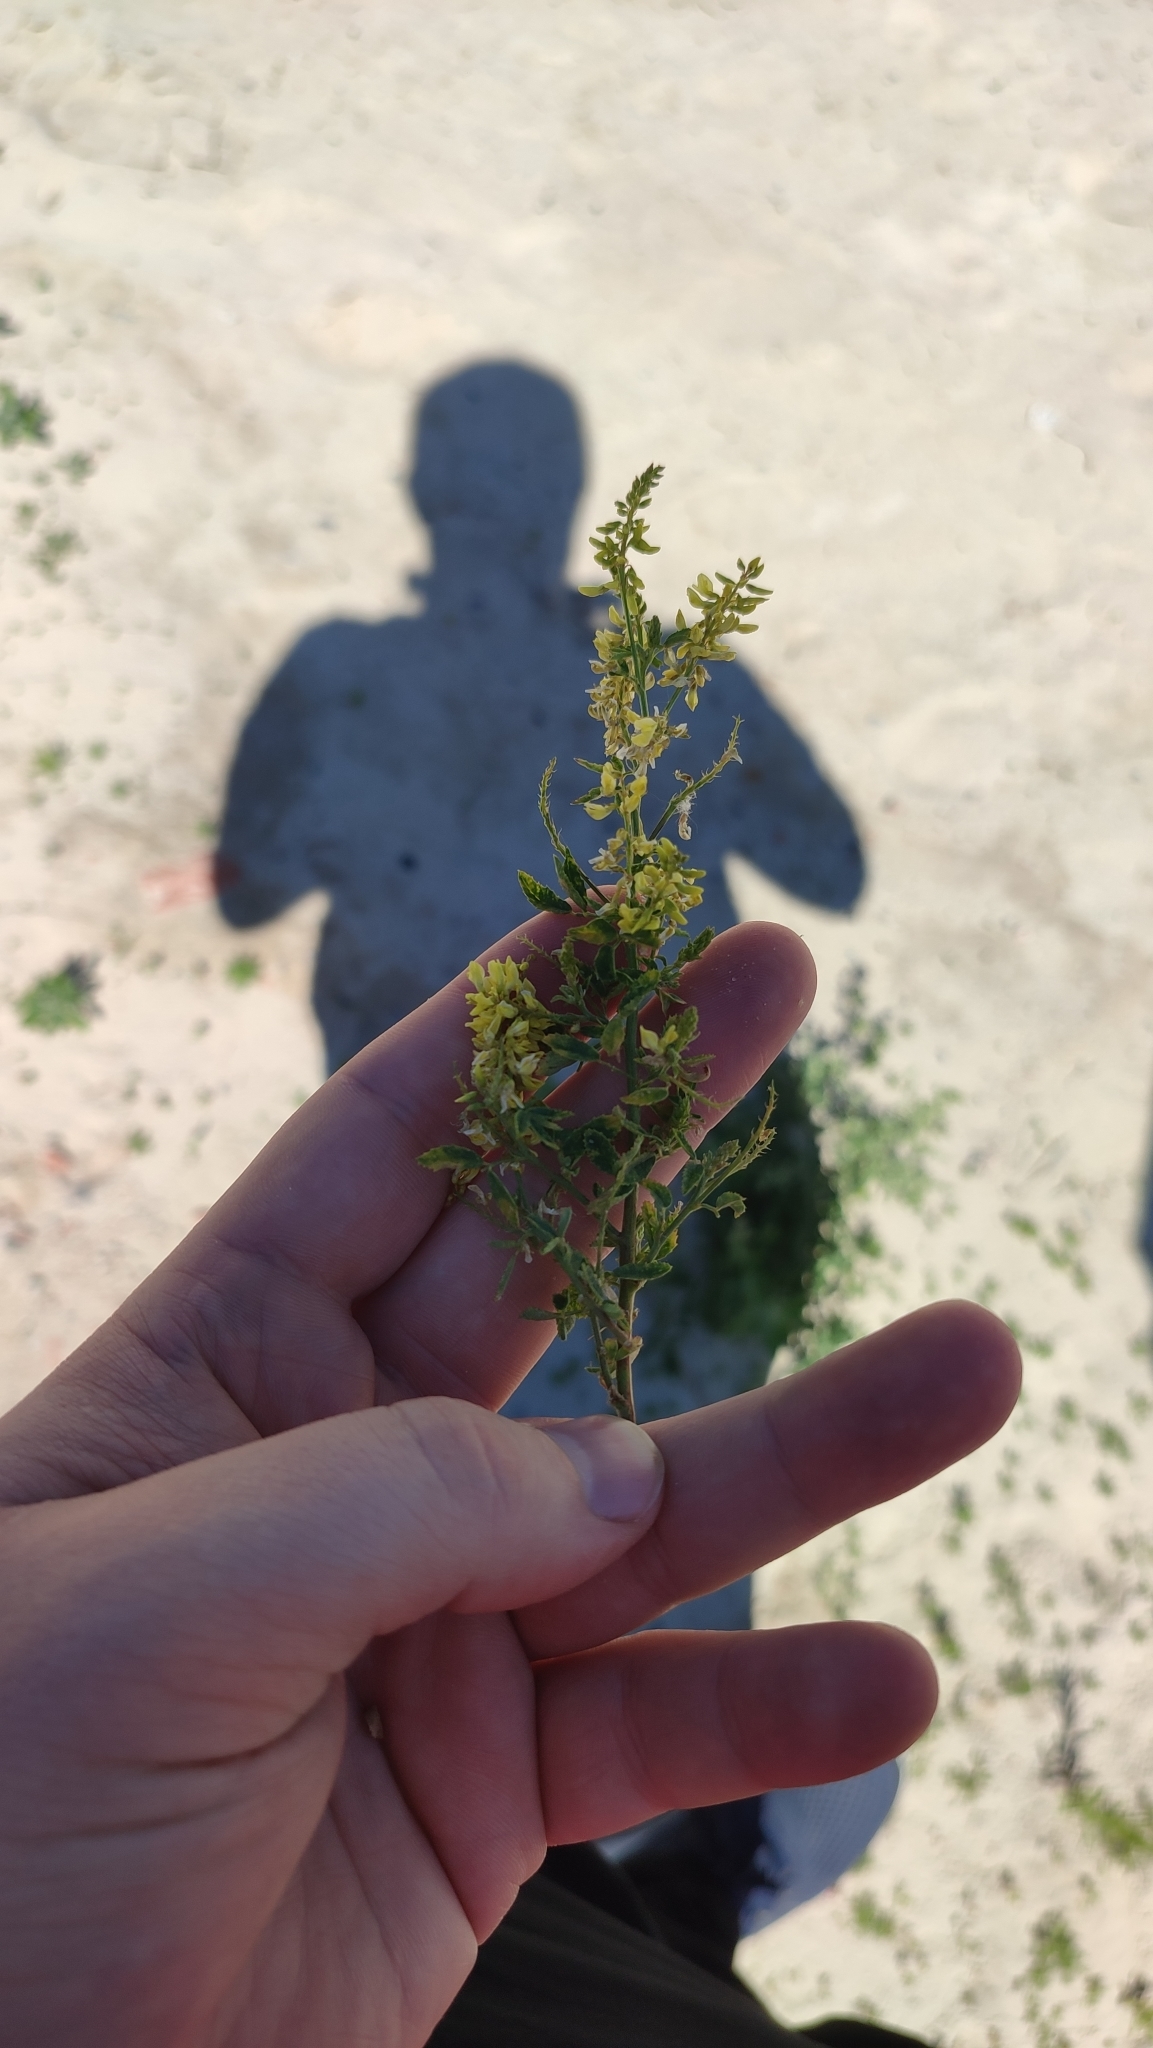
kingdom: Plantae
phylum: Tracheophyta
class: Magnoliopsida
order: Fabales
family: Fabaceae
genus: Melilotus
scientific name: Melilotus officinalis
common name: Sweetclover
